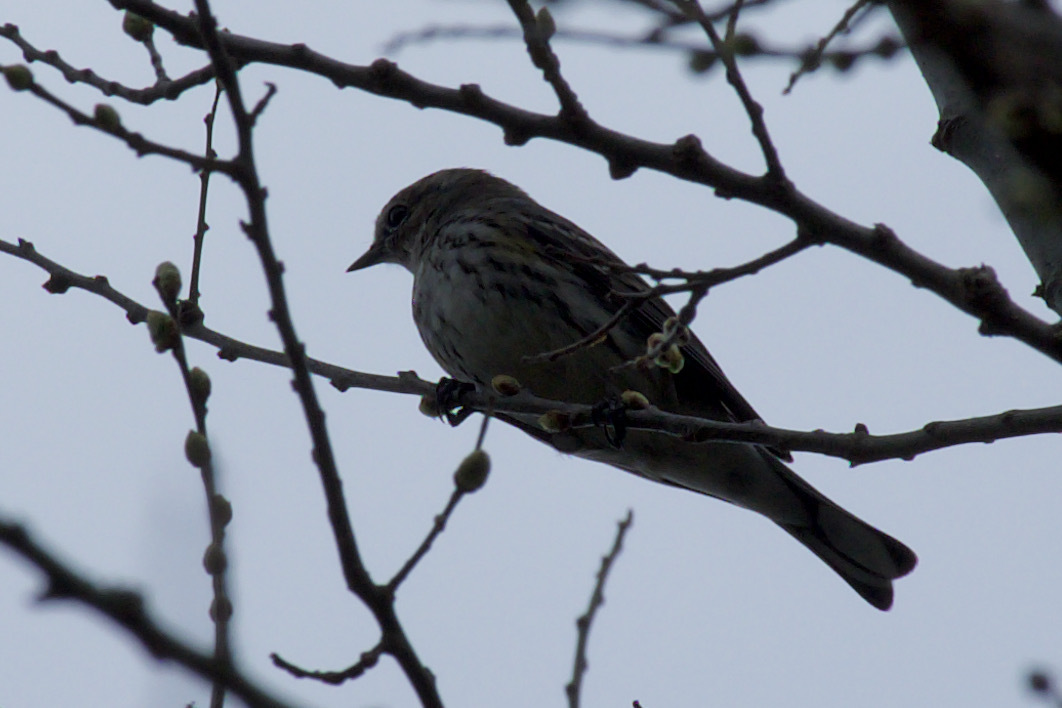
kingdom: Animalia
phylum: Chordata
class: Aves
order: Passeriformes
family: Parulidae
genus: Setophaga
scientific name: Setophaga coronata
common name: Myrtle warbler
